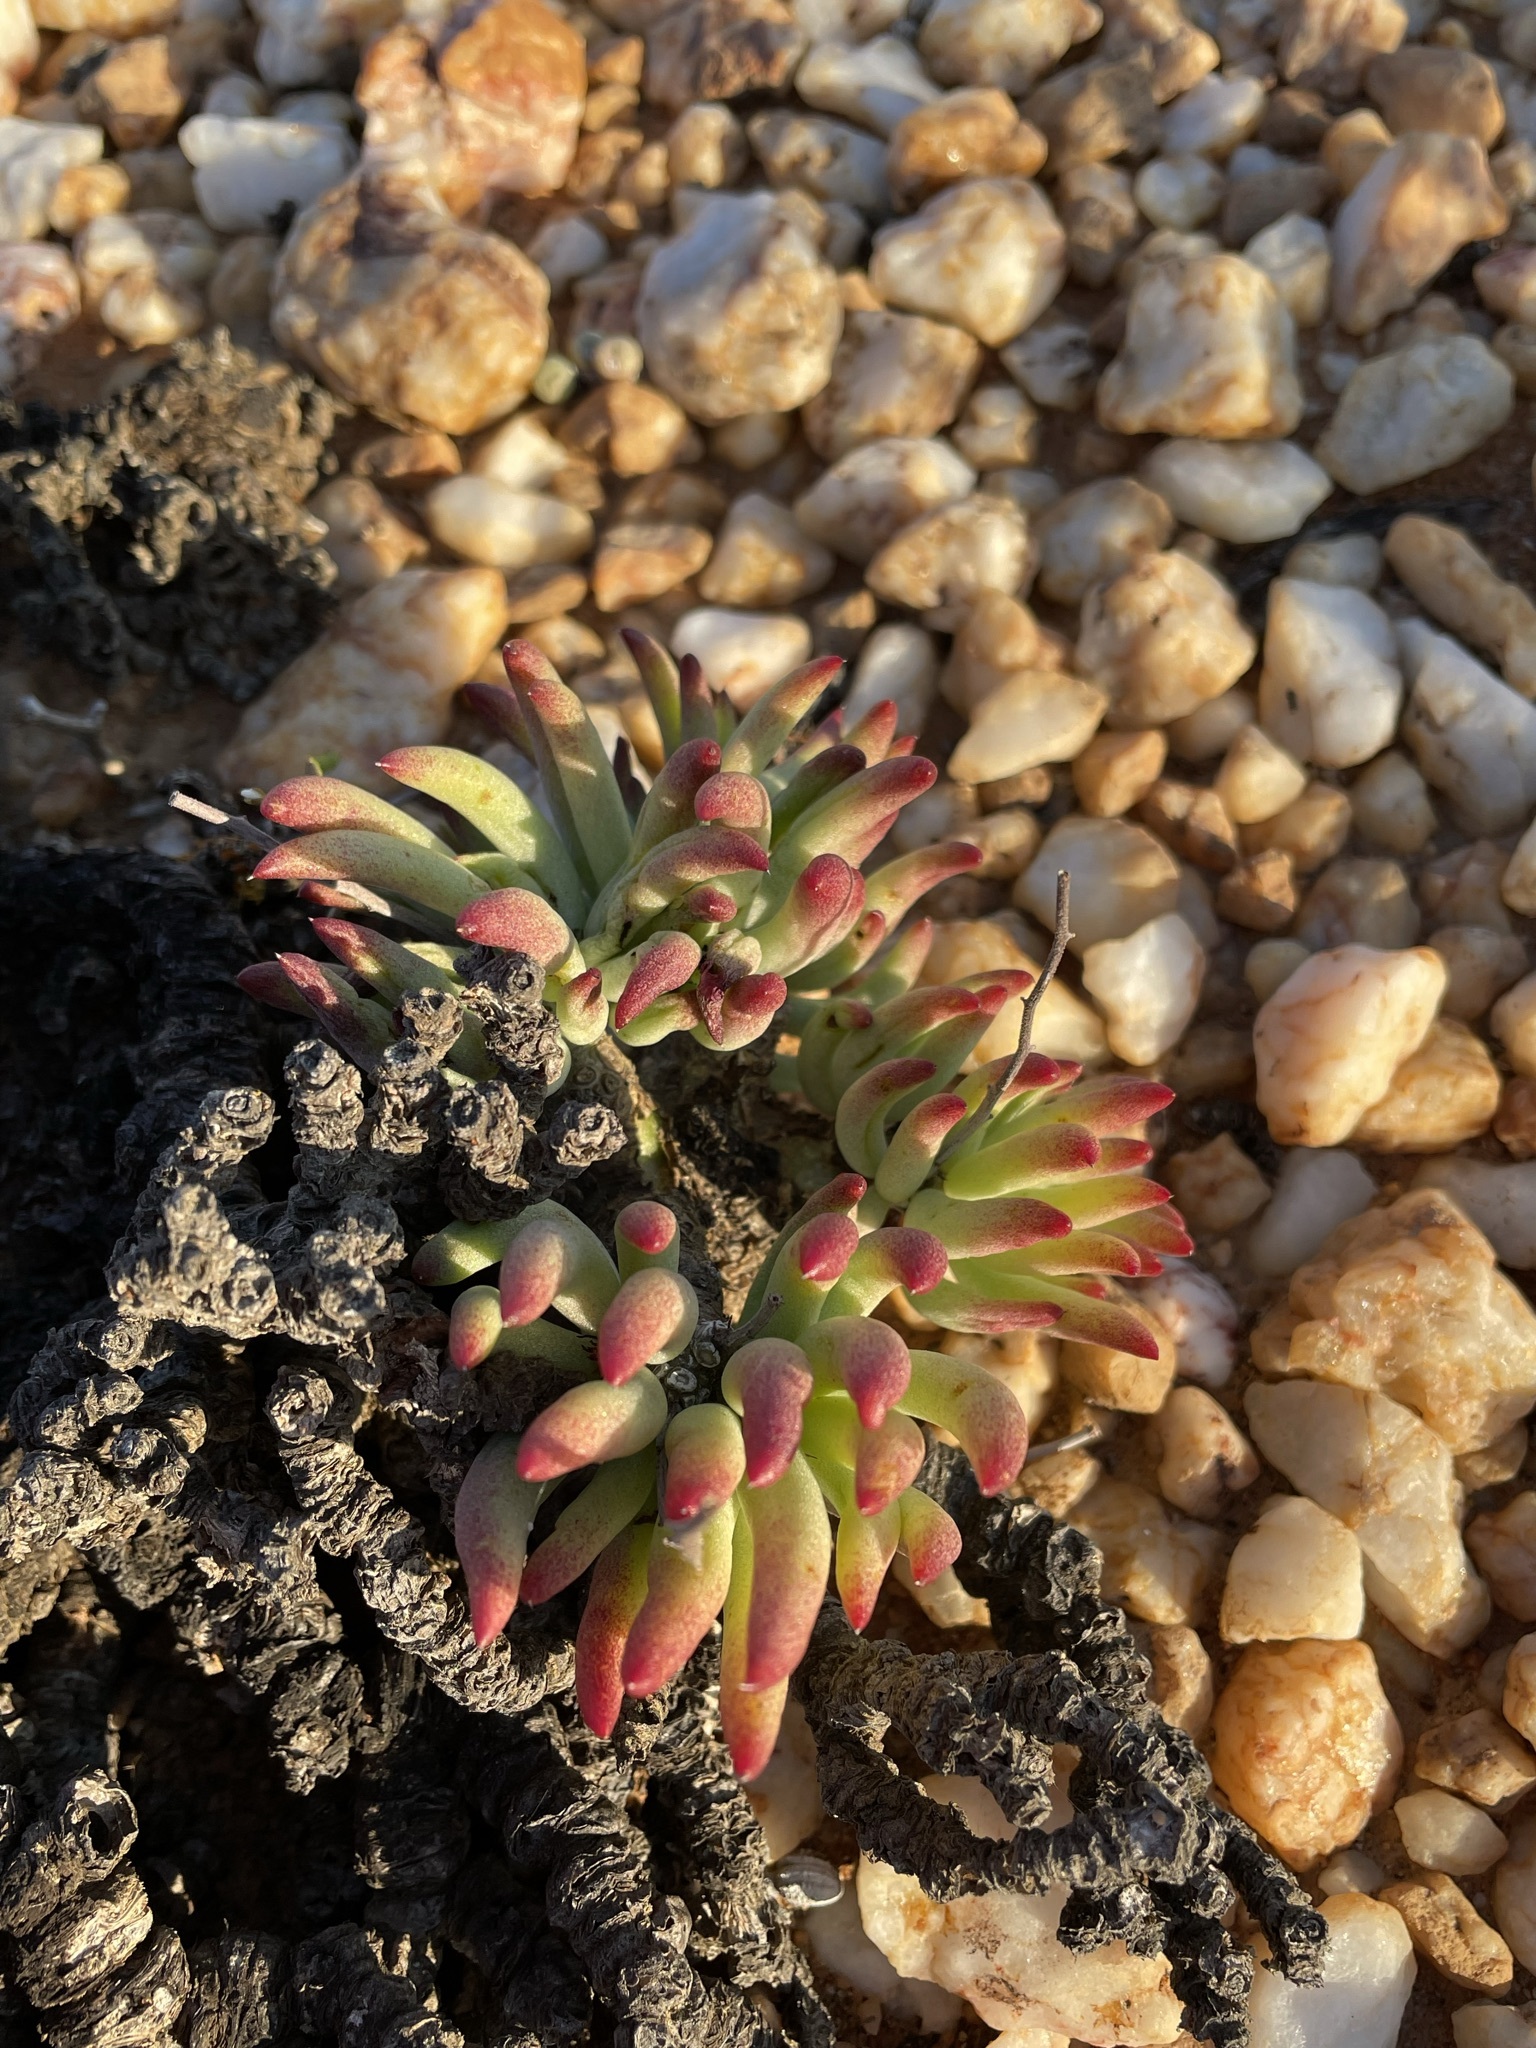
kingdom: Plantae
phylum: Tracheophyta
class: Magnoliopsida
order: Saxifragales
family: Crassulaceae
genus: Tylecodon
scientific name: Tylecodon pearsonii
